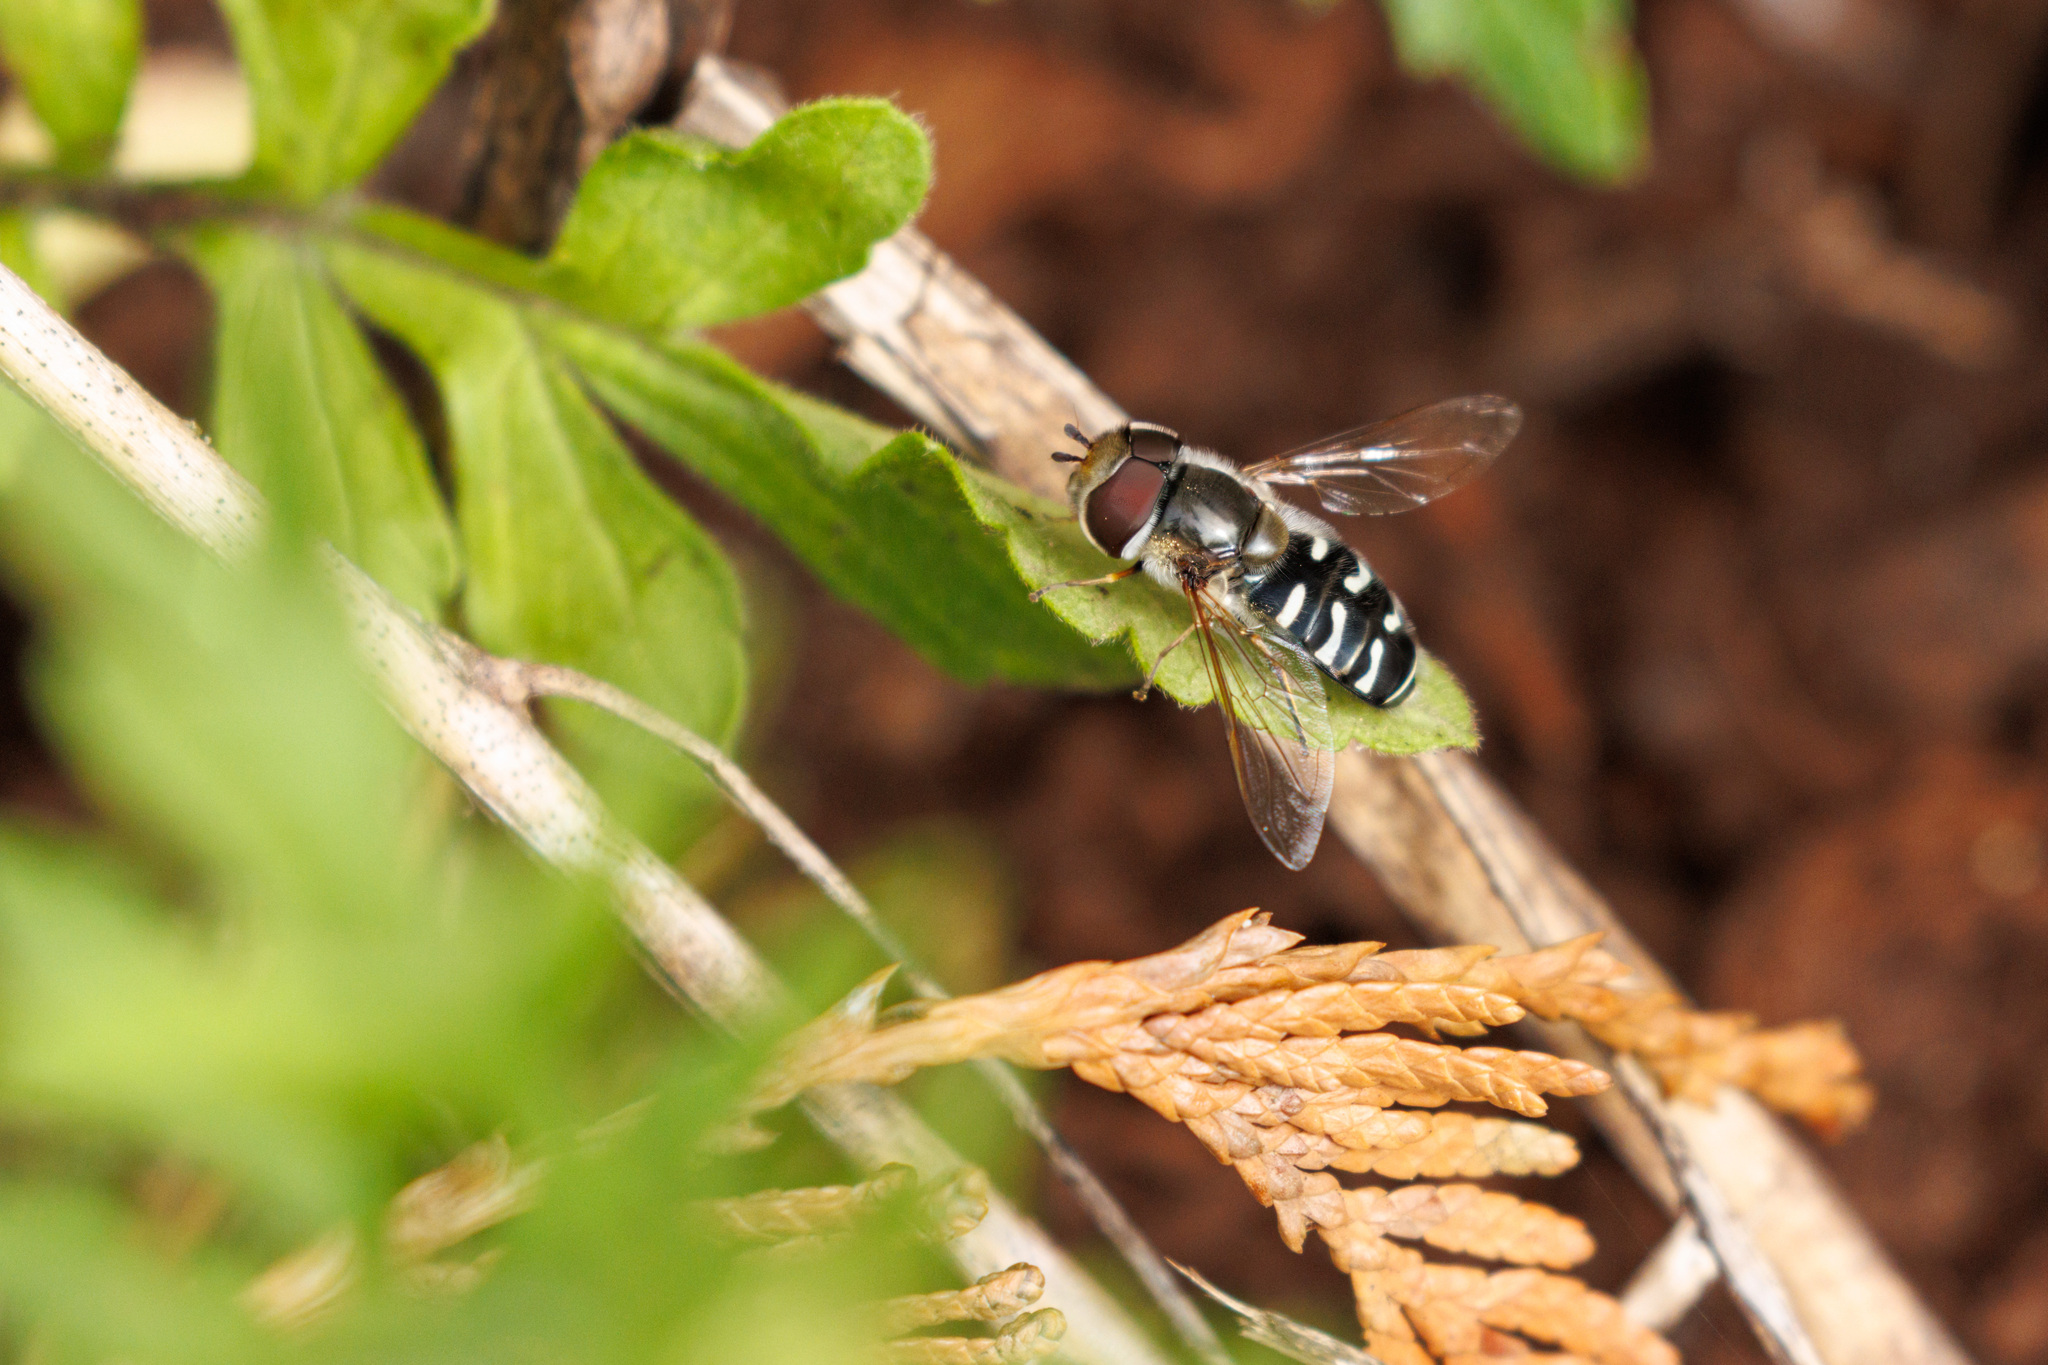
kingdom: Animalia
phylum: Arthropoda
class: Insecta
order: Diptera
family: Syrphidae
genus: Scaeva
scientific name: Scaeva affinis
